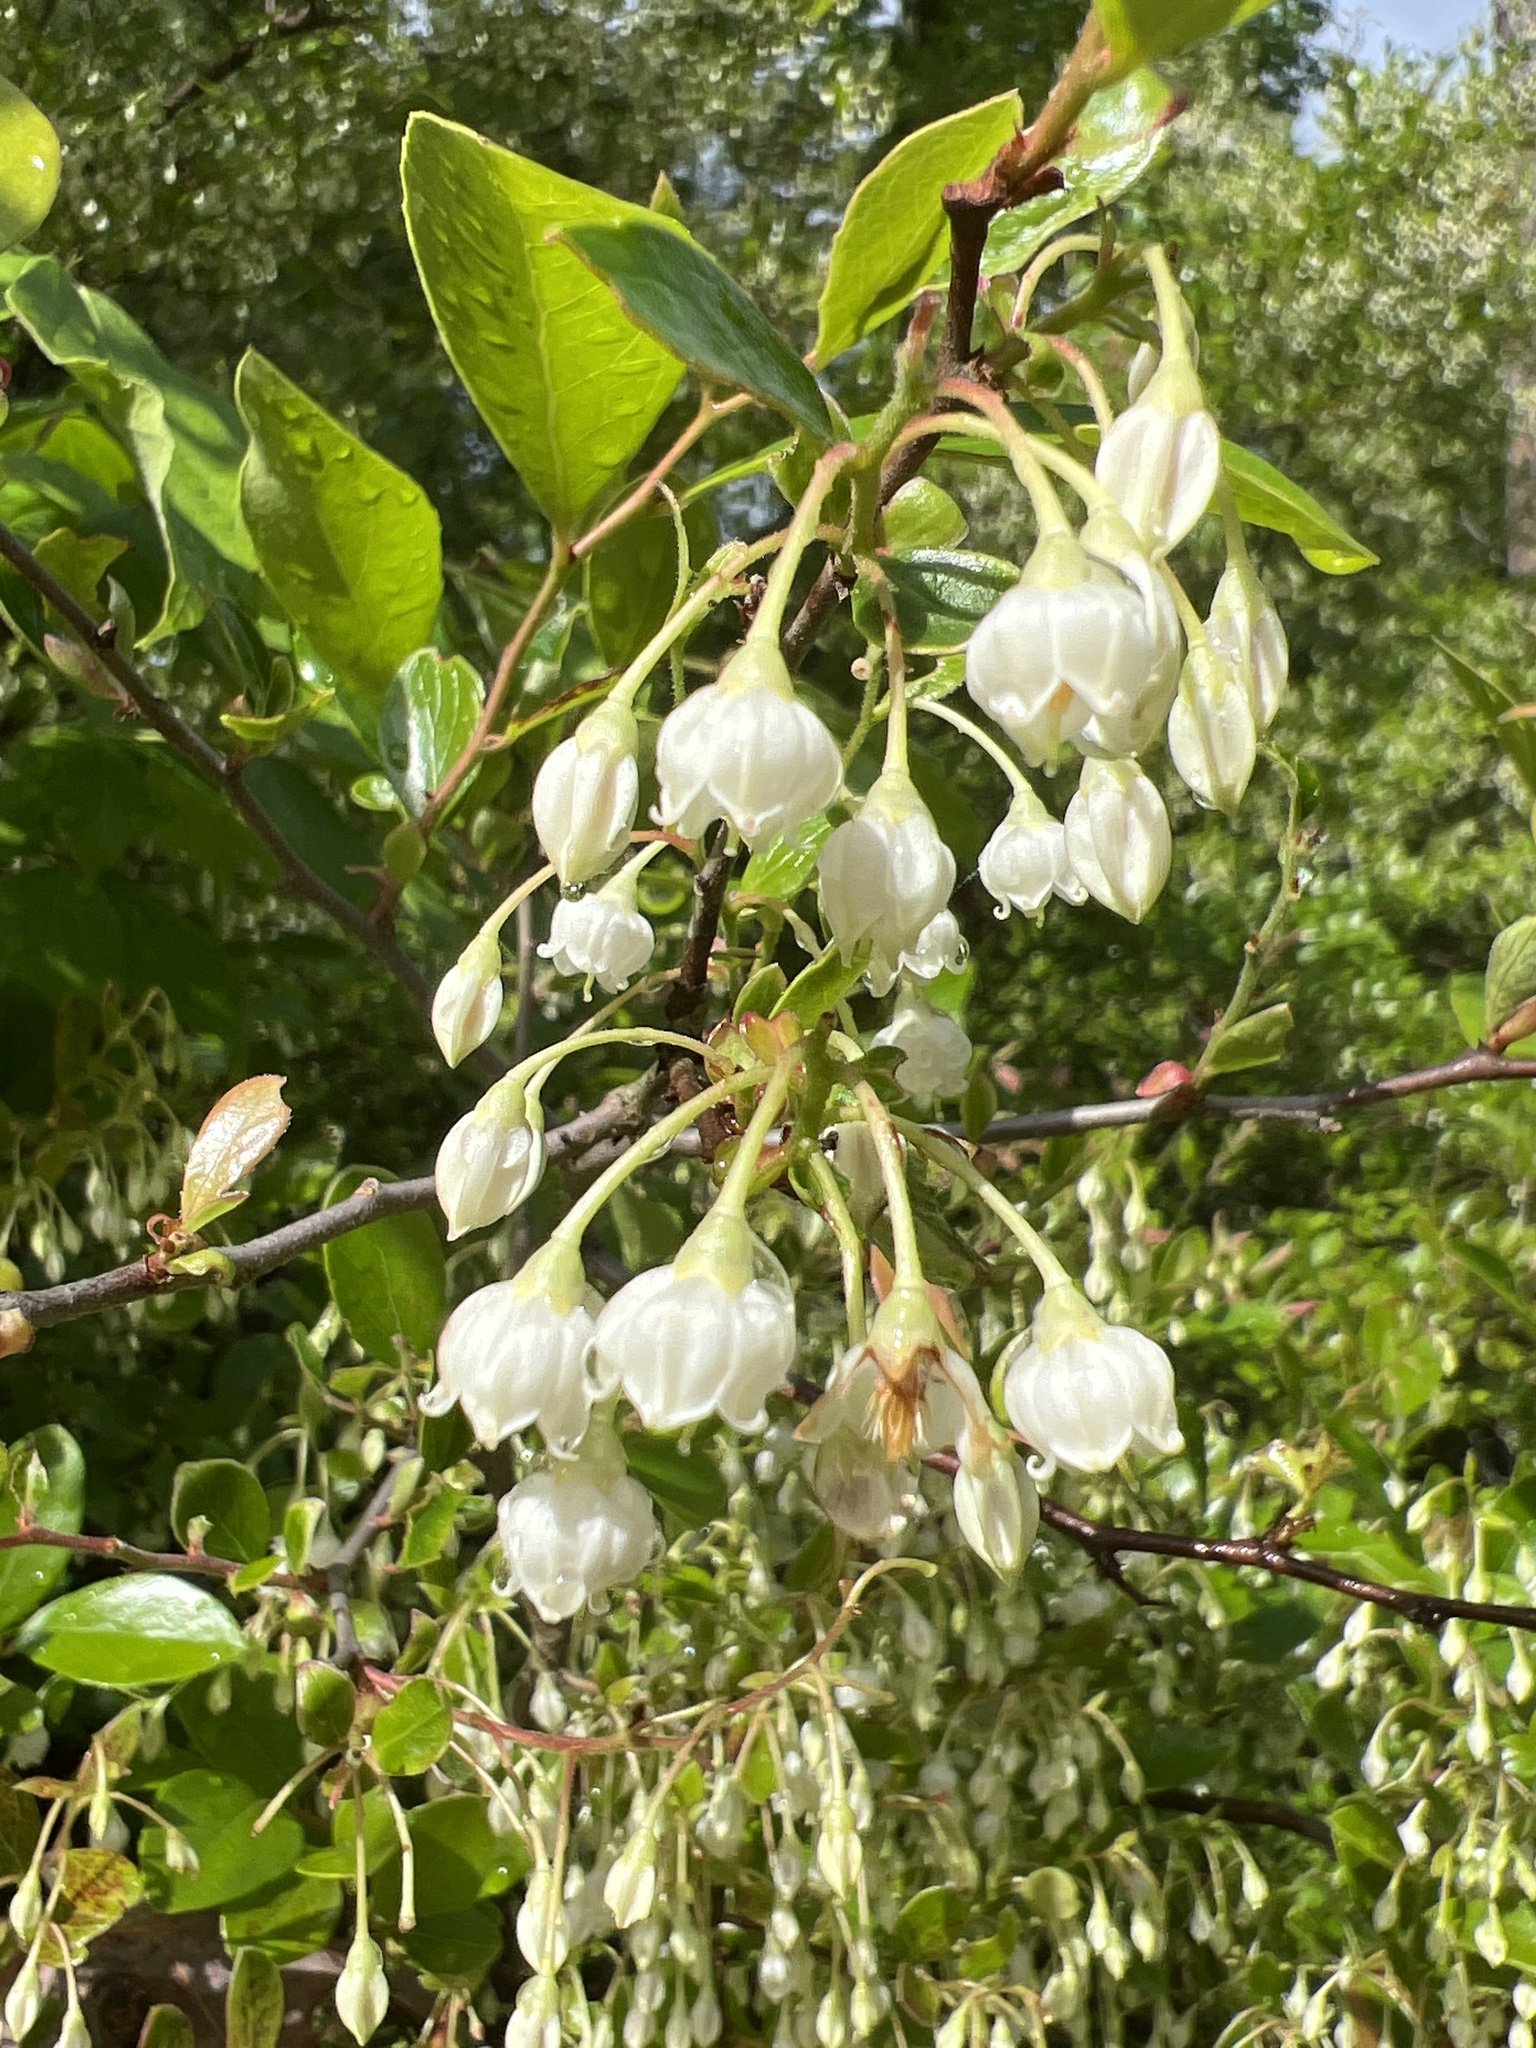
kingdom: Plantae
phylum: Tracheophyta
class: Magnoliopsida
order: Ericales
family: Ericaceae
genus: Vaccinium
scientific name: Vaccinium arboreum
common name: Farkleberry
